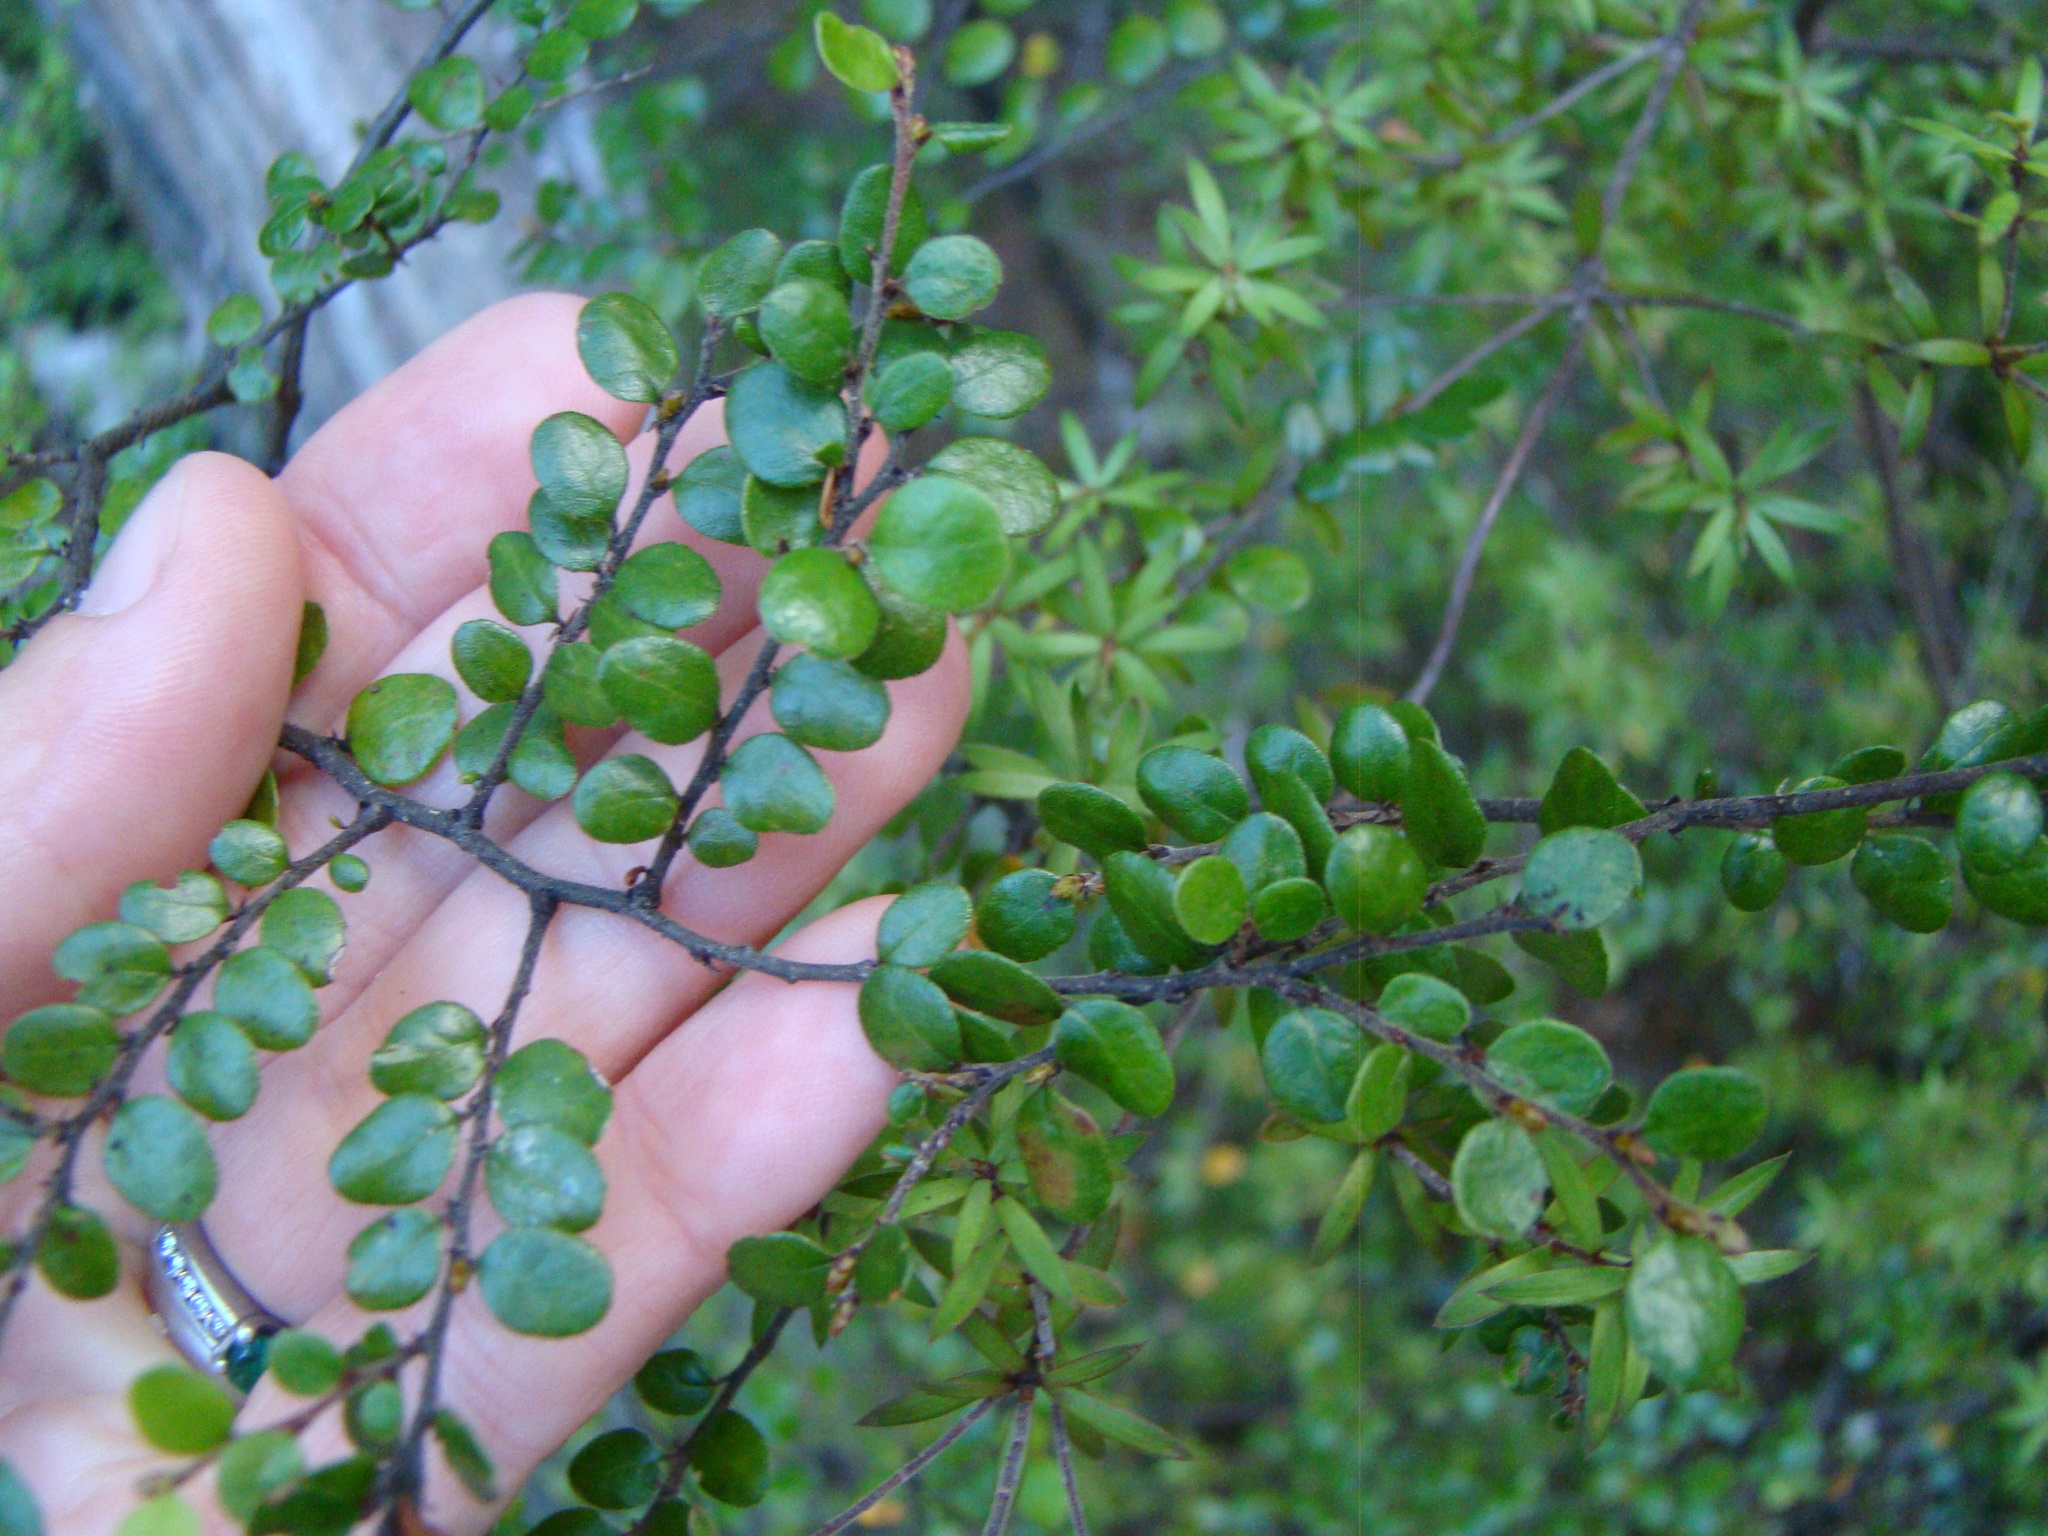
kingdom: Plantae
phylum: Tracheophyta
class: Magnoliopsida
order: Fagales
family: Nothofagaceae
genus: Nothofagus
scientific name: Nothofagus cliffortioides
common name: Mountain beech
